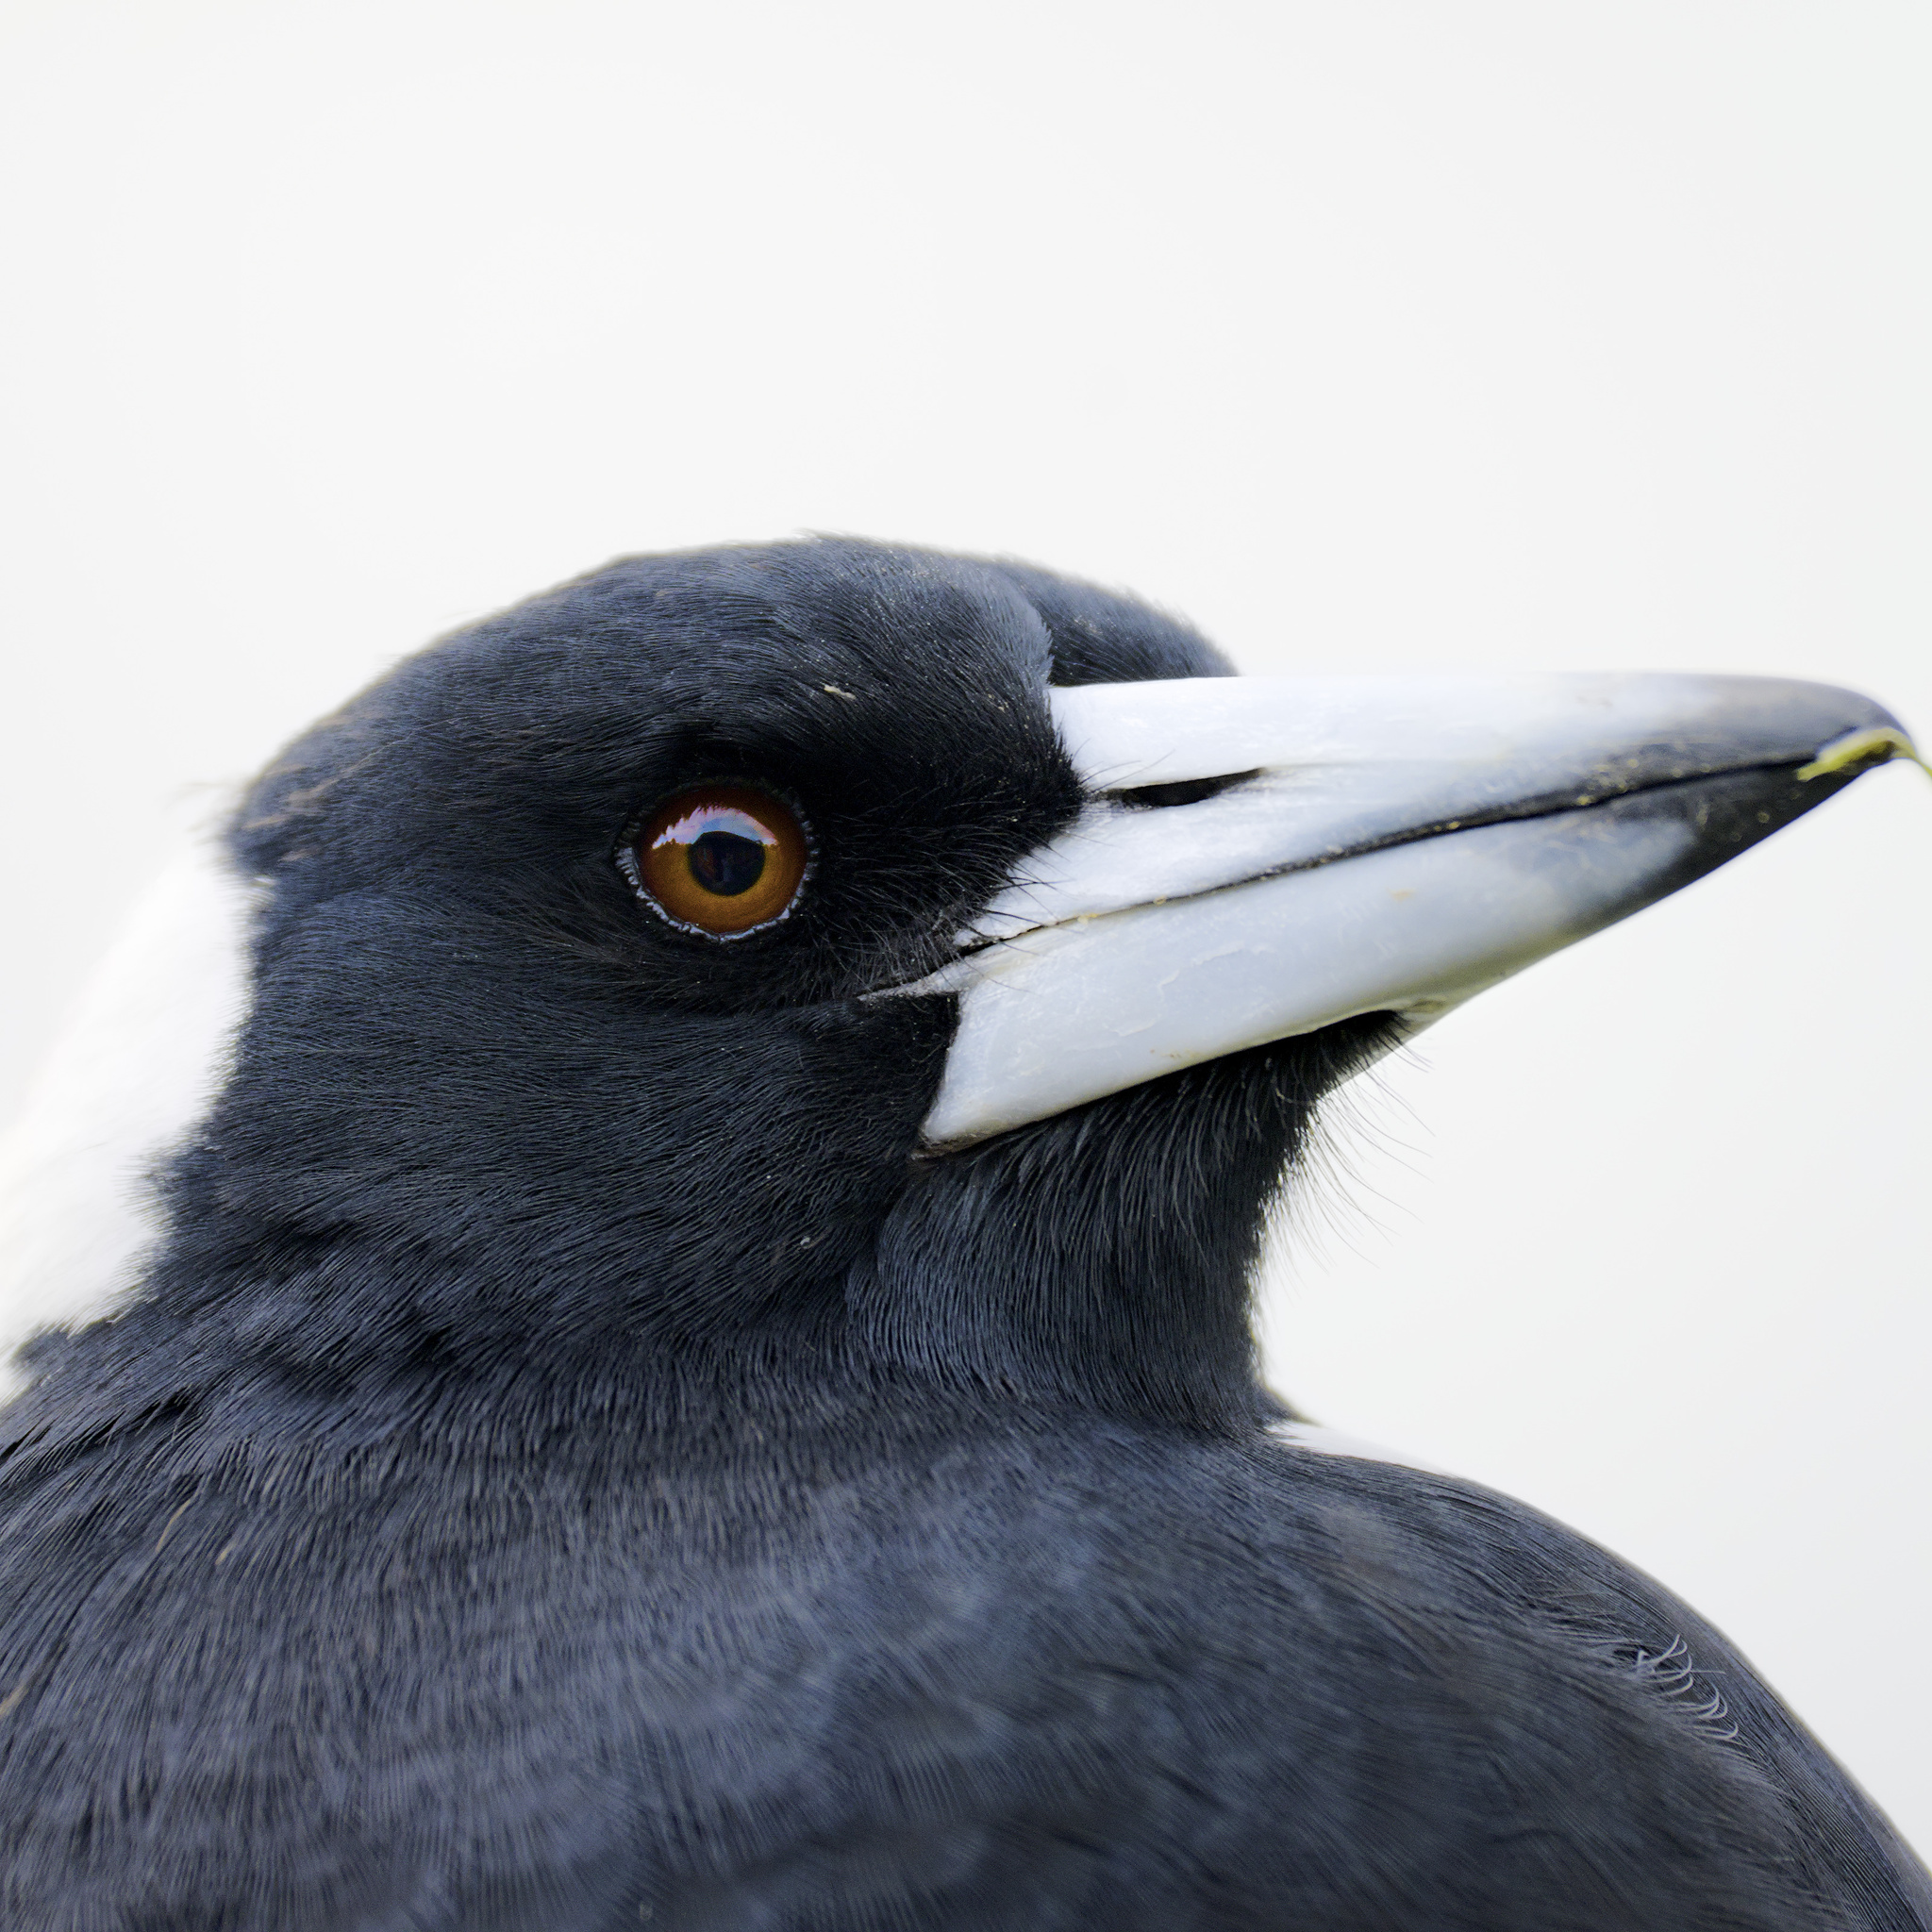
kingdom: Animalia
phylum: Chordata
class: Aves
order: Passeriformes
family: Cracticidae
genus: Gymnorhina
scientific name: Gymnorhina tibicen
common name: Australian magpie
